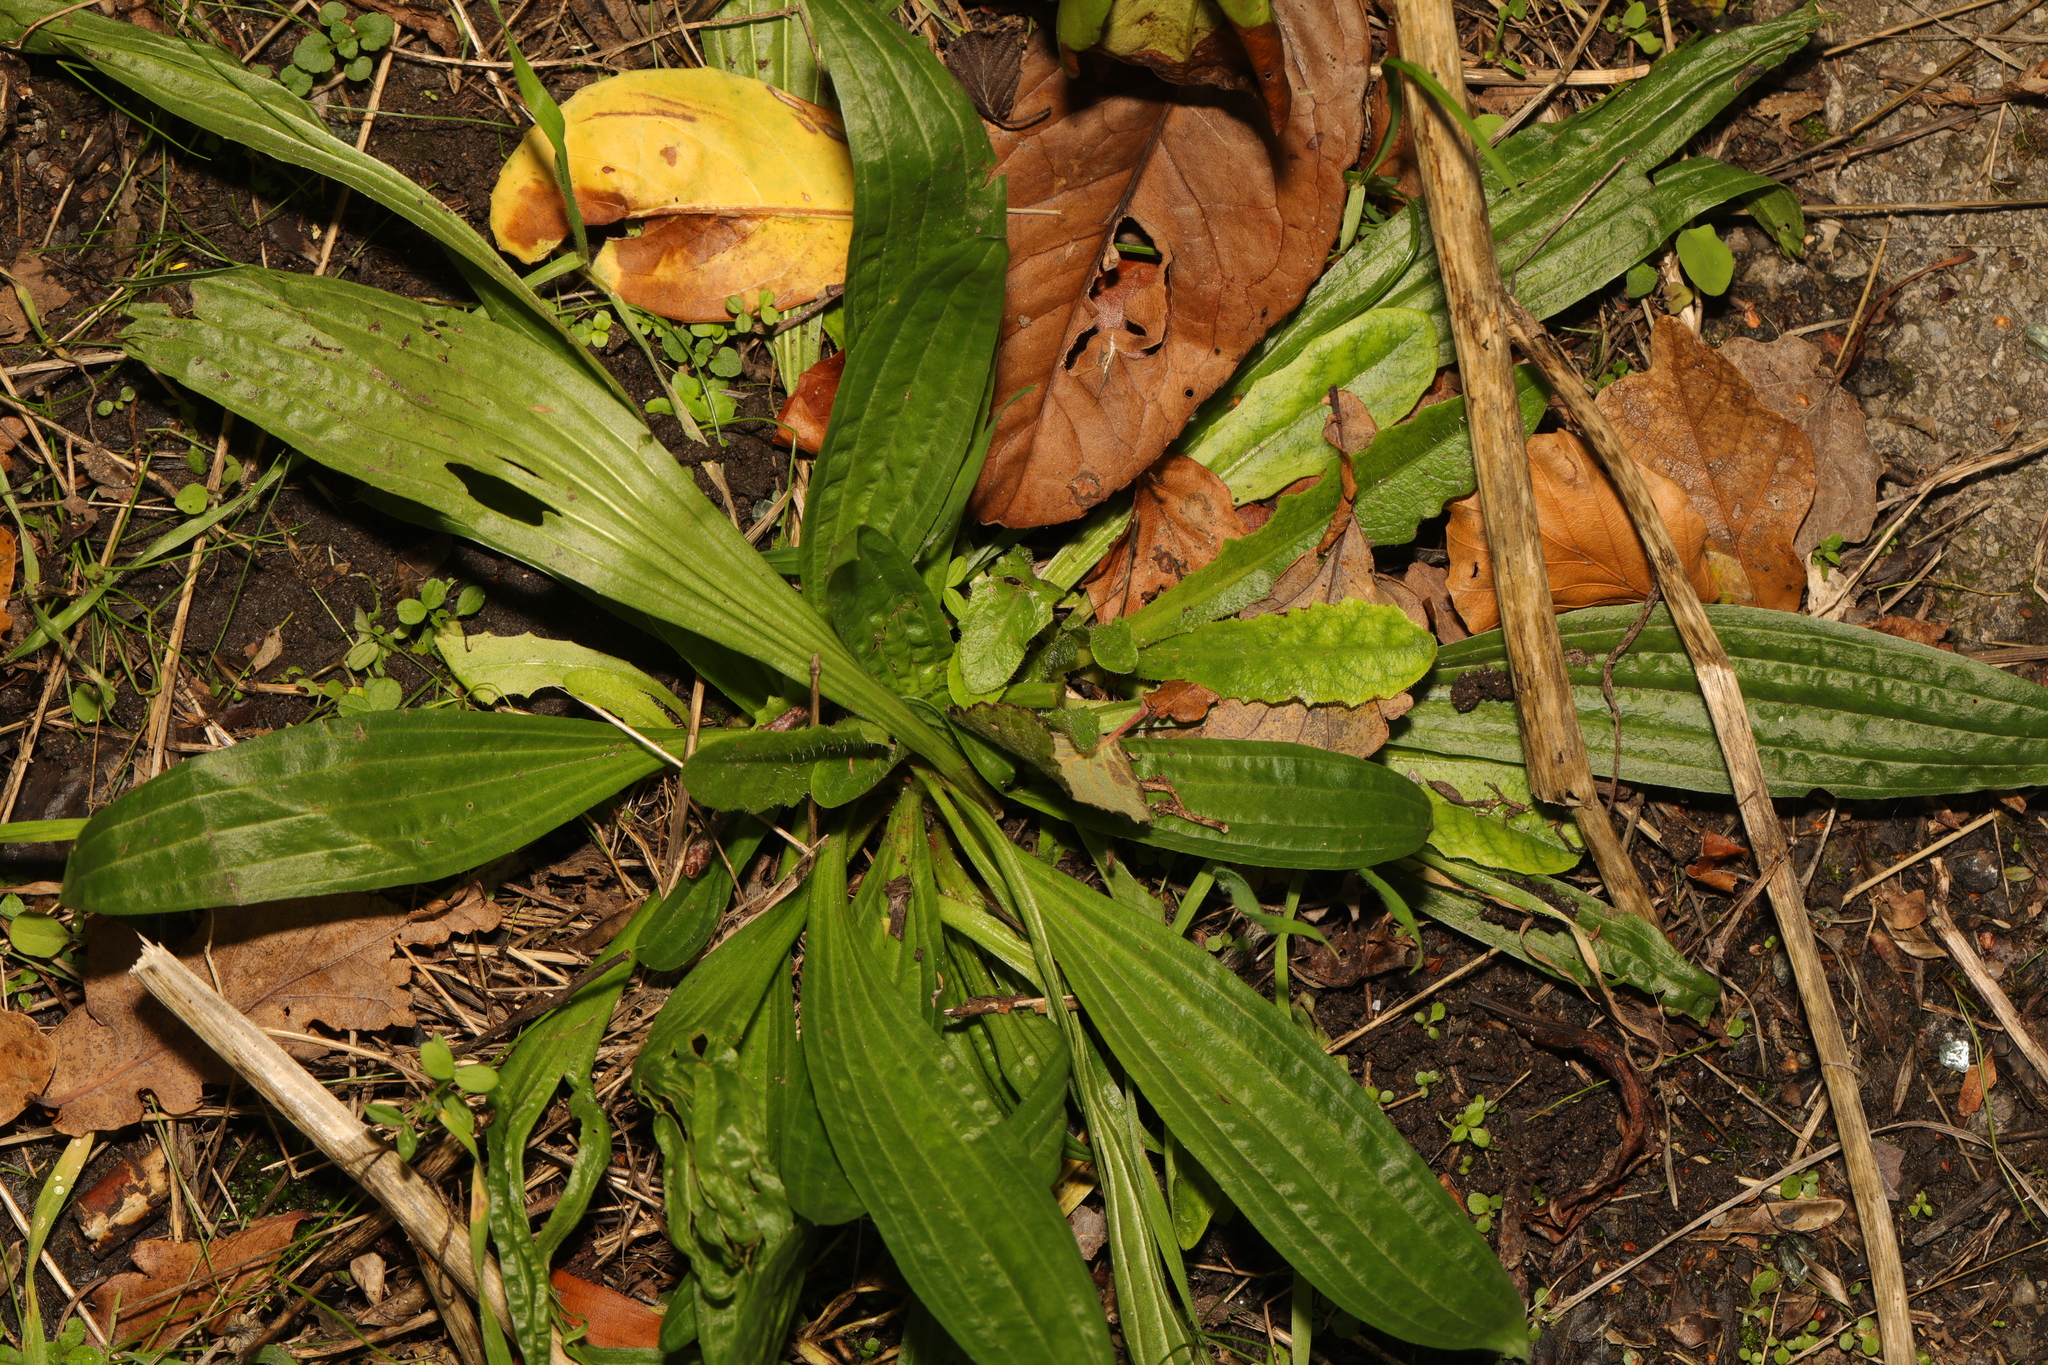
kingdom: Plantae
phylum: Tracheophyta
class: Magnoliopsida
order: Lamiales
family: Plantaginaceae
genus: Plantago
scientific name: Plantago lanceolata
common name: Ribwort plantain
